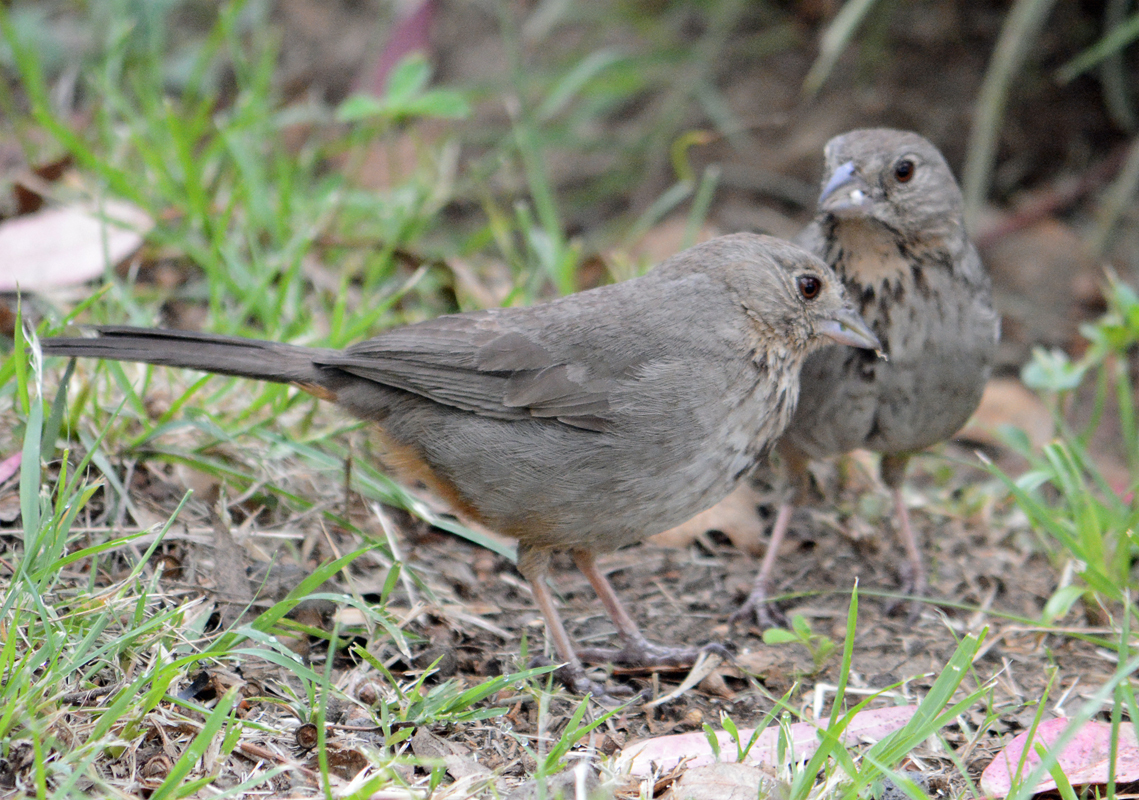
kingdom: Animalia
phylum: Chordata
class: Aves
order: Passeriformes
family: Passerellidae
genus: Melozone
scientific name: Melozone fusca
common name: Canyon towhee
